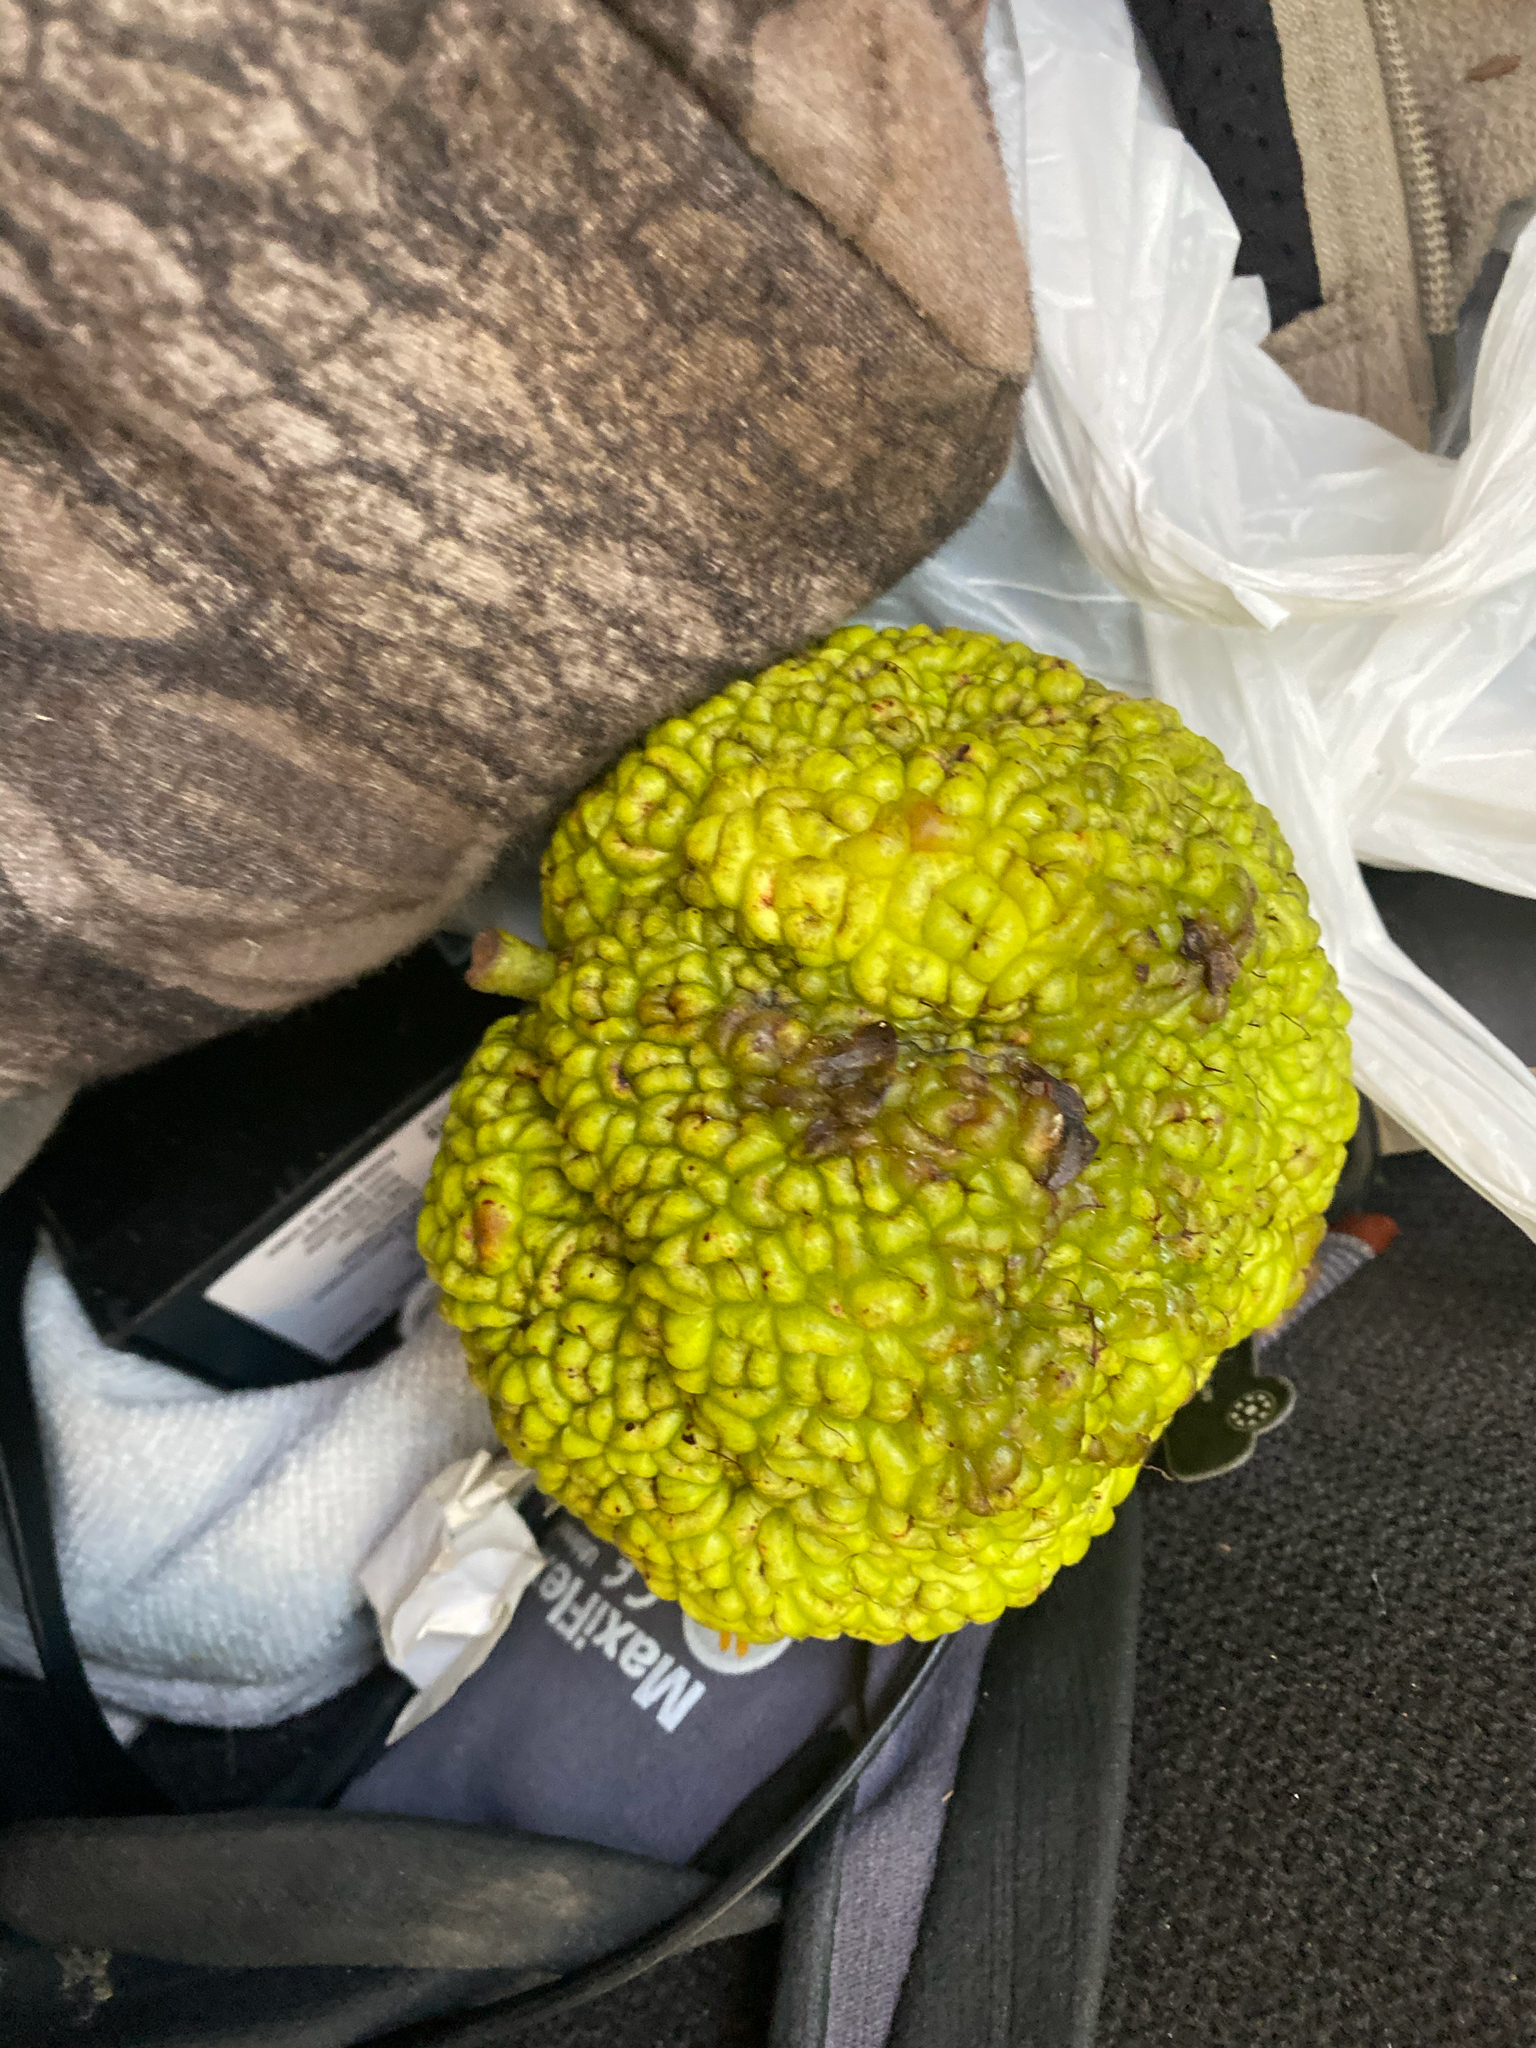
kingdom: Plantae
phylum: Tracheophyta
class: Magnoliopsida
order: Rosales
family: Moraceae
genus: Maclura
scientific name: Maclura pomifera
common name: Osage-orange
